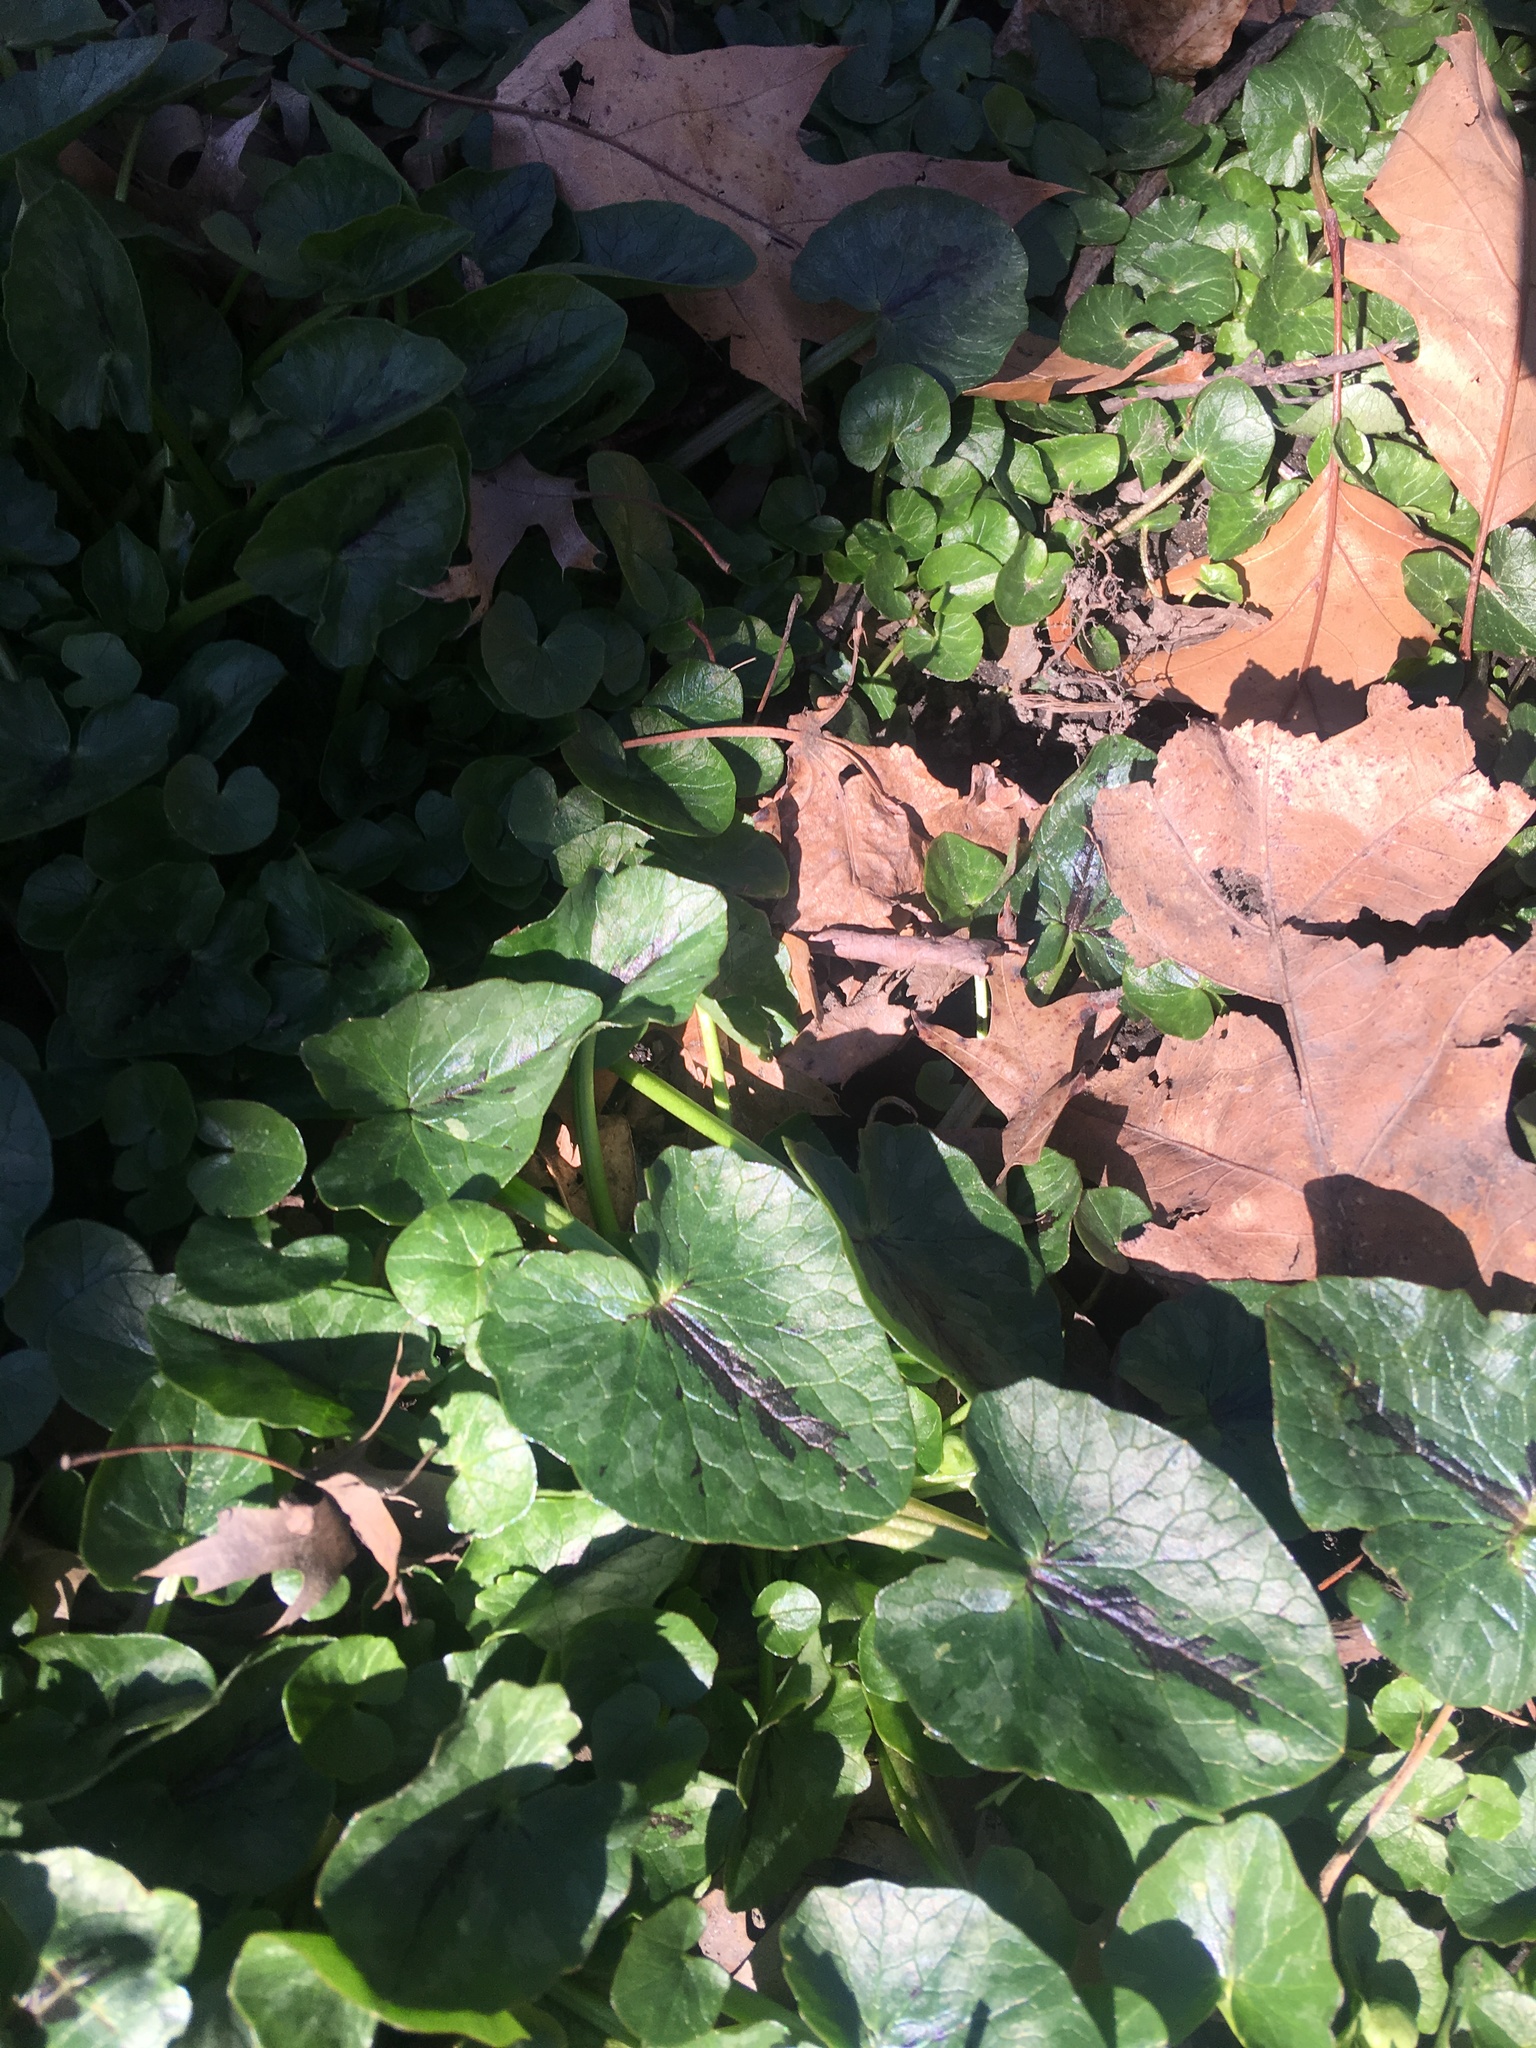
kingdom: Plantae
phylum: Tracheophyta
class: Magnoliopsida
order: Ranunculales
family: Ranunculaceae
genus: Ficaria
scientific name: Ficaria verna
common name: Lesser celandine
